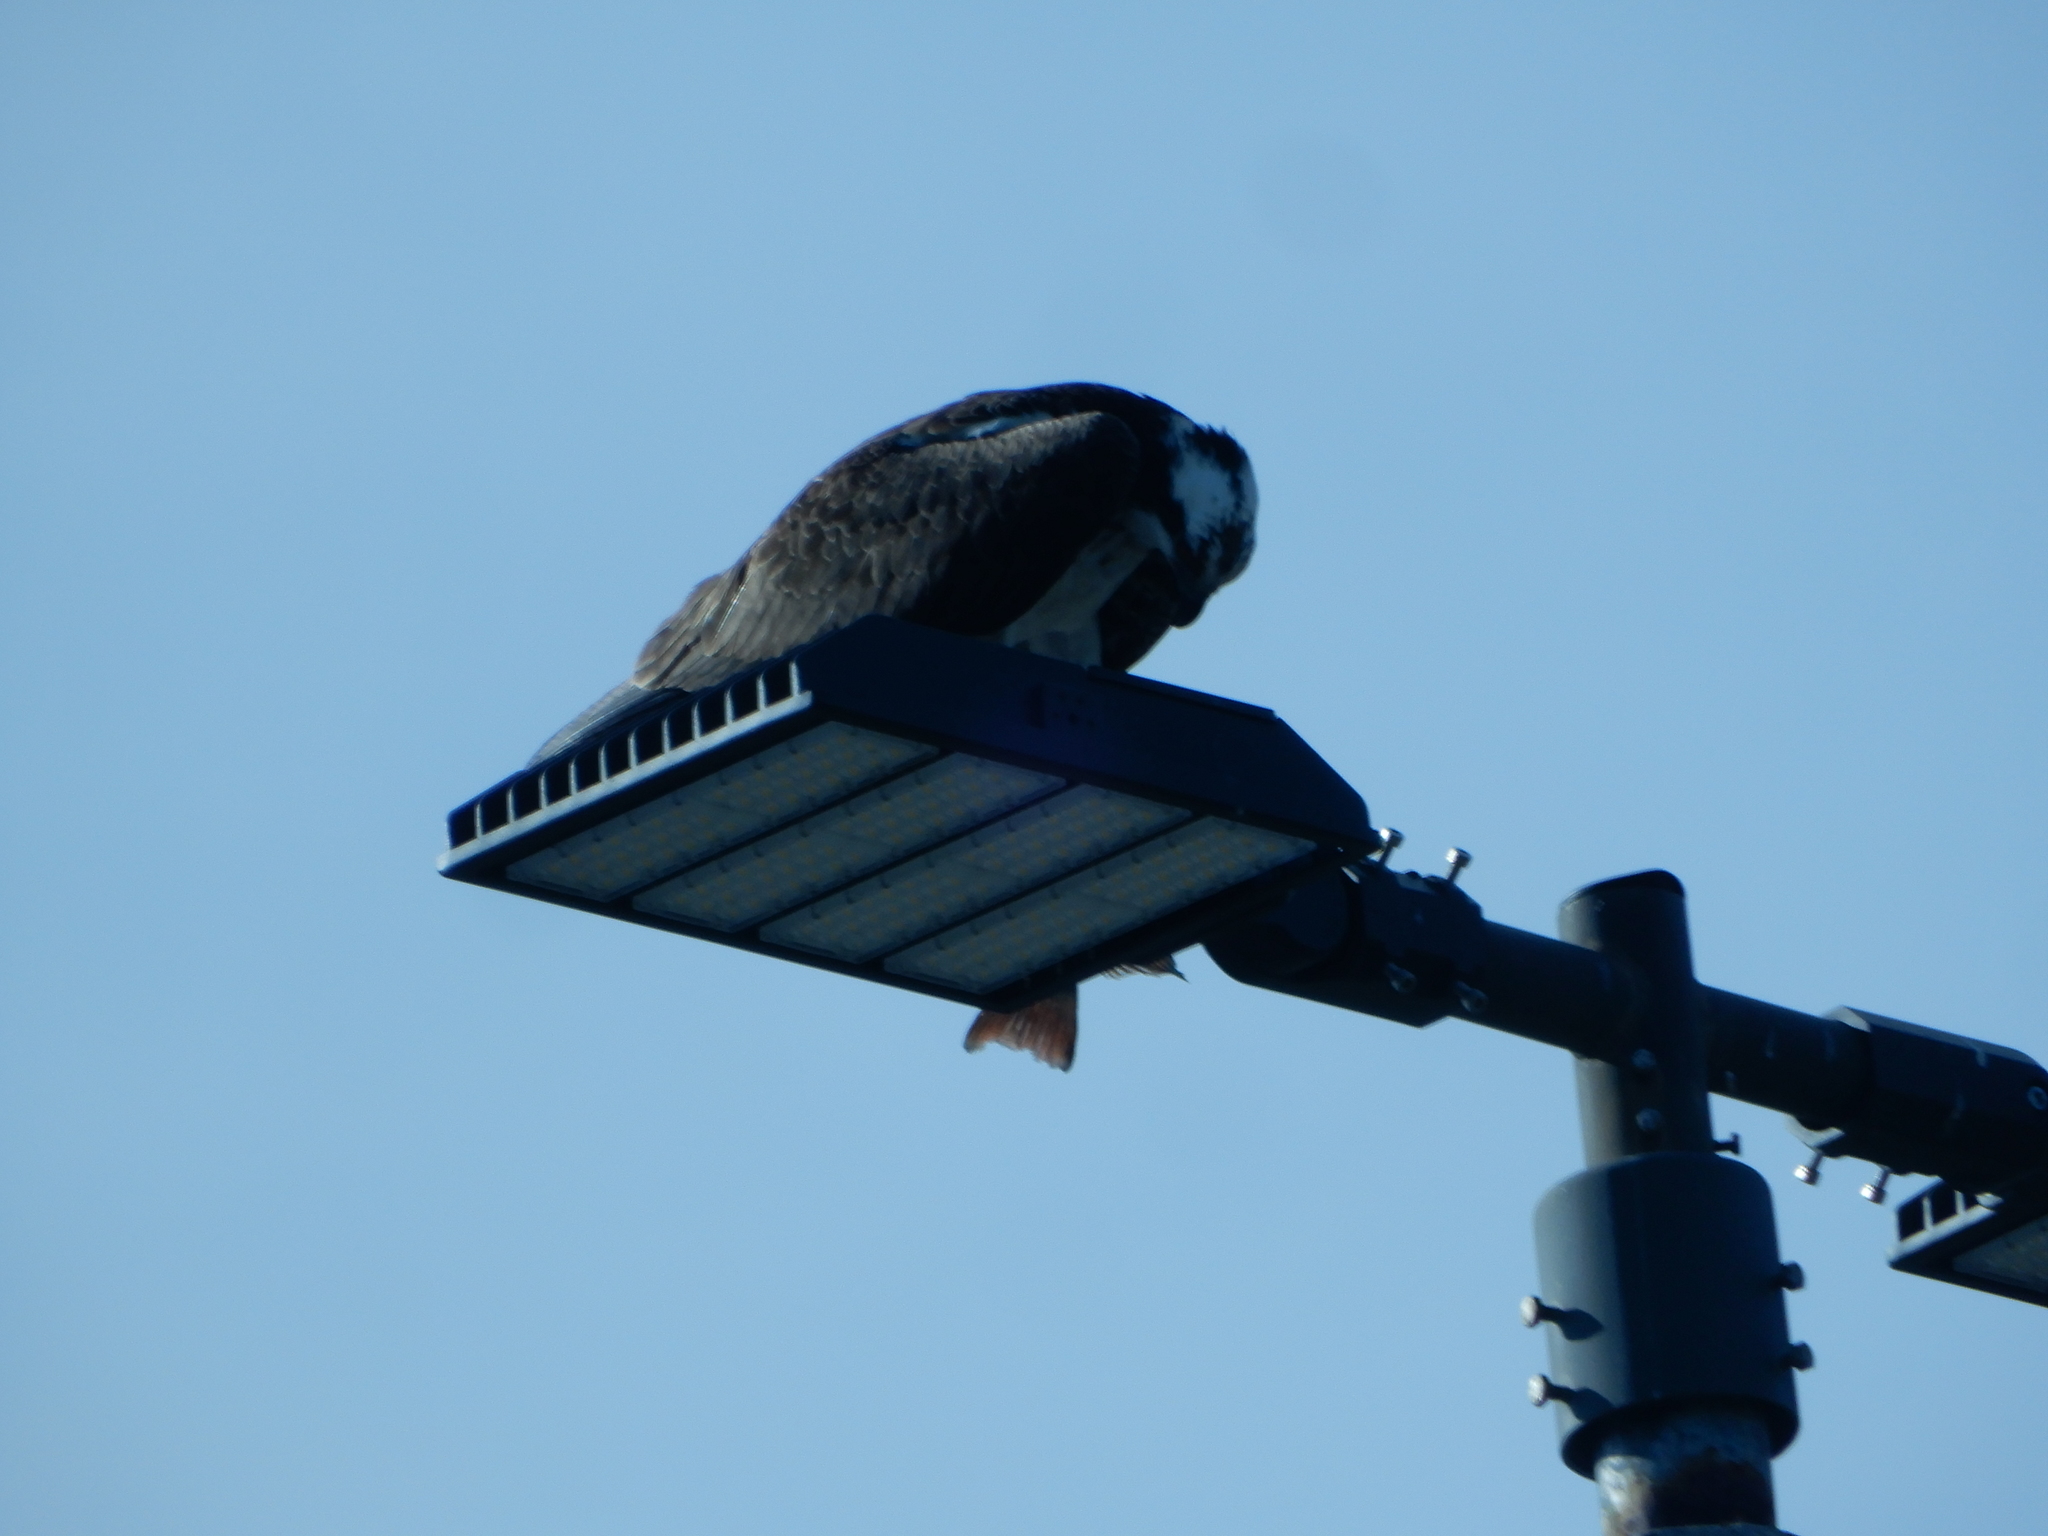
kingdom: Animalia
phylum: Chordata
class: Aves
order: Accipitriformes
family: Pandionidae
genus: Pandion
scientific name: Pandion haliaetus
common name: Osprey
